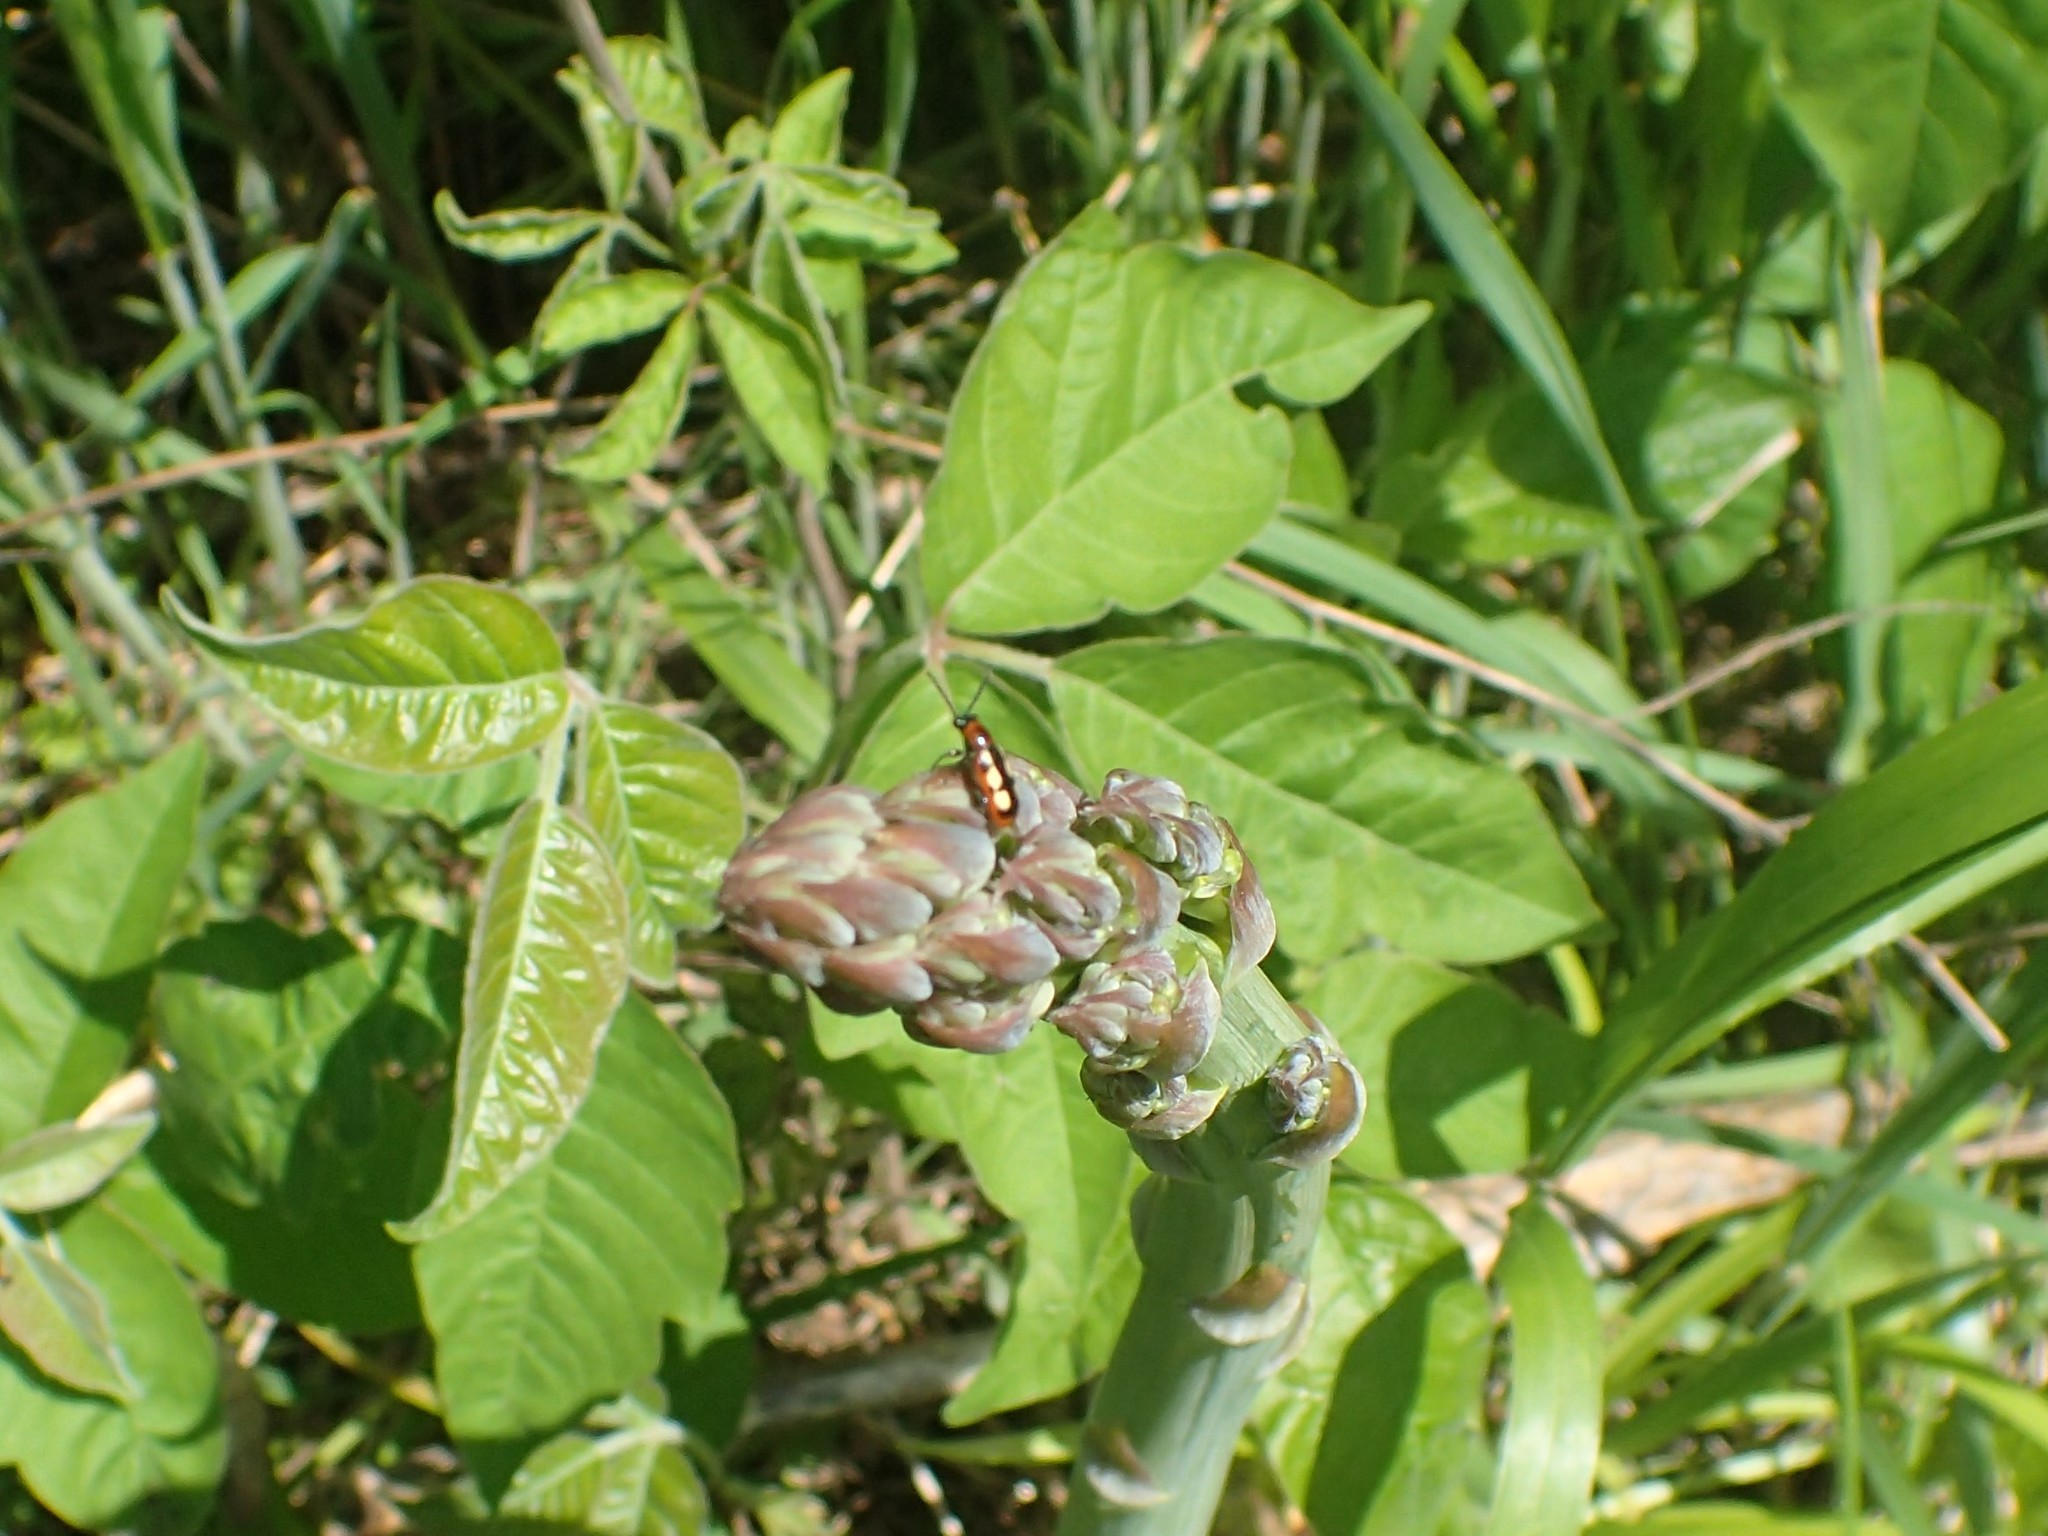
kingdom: Animalia
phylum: Arthropoda
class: Insecta
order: Coleoptera
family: Chrysomelidae
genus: Crioceris
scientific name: Crioceris asparagi
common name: Asparagus beetle
